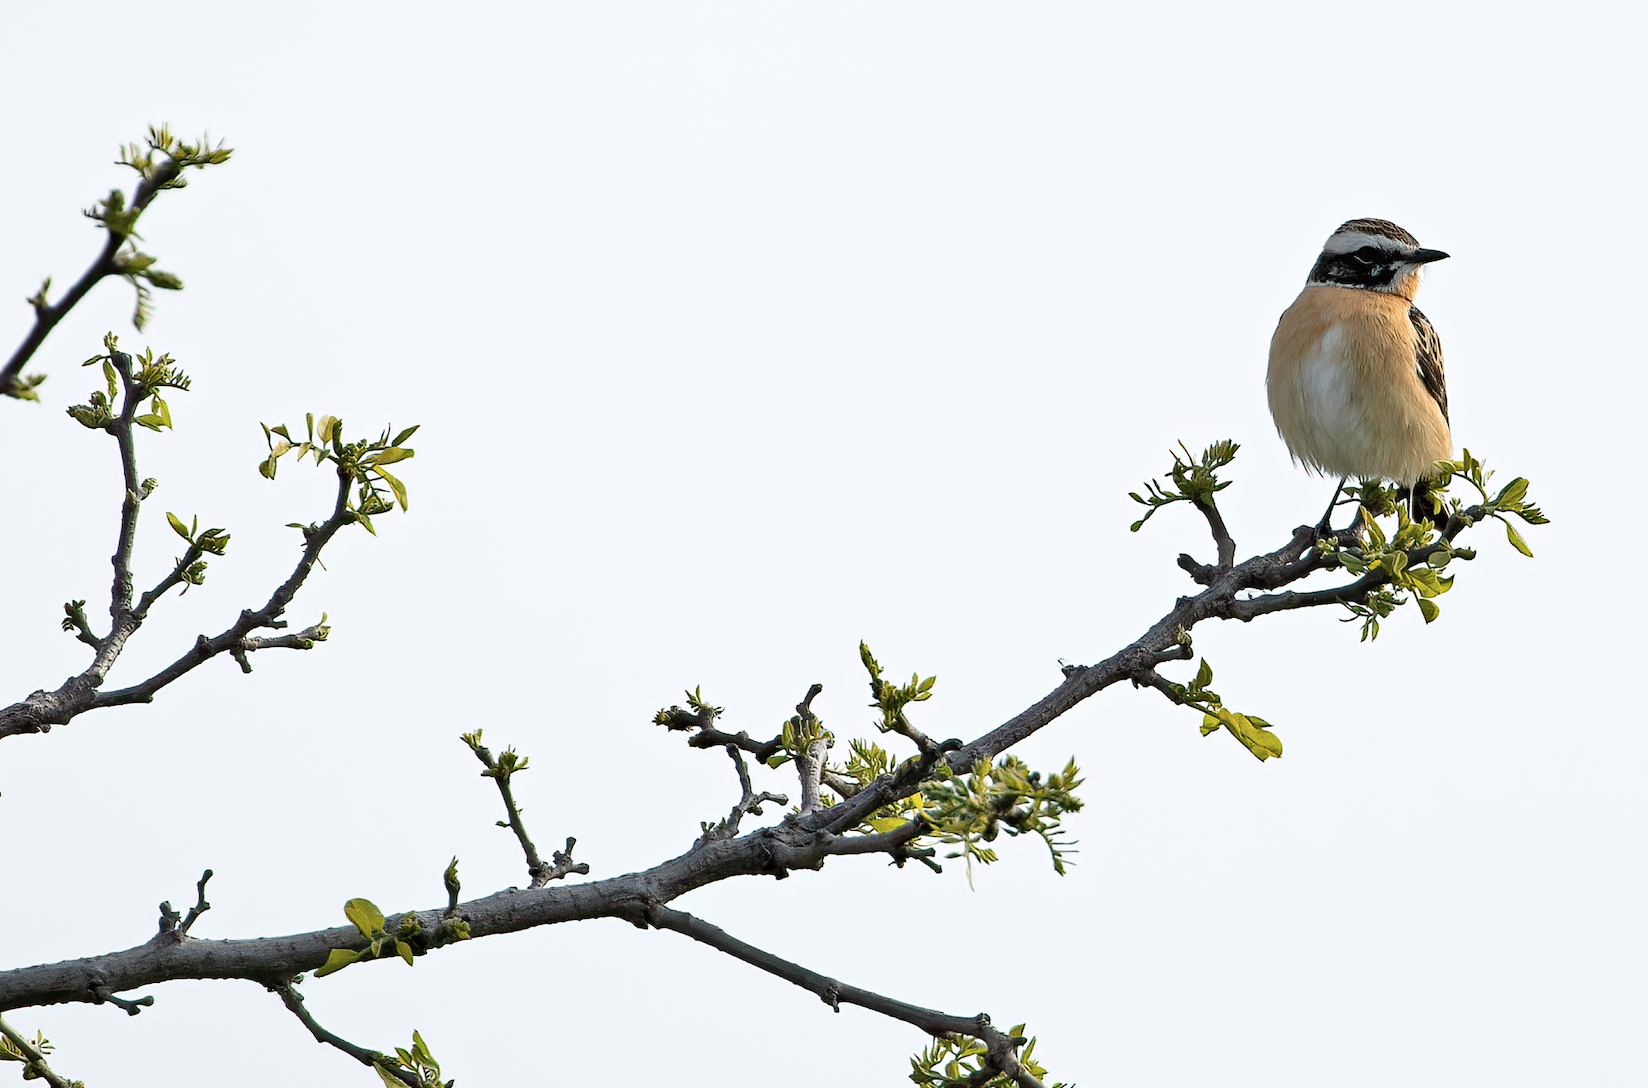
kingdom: Animalia
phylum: Chordata
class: Aves
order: Passeriformes
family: Muscicapidae
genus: Saxicola
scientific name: Saxicola rubetra
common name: Whinchat
